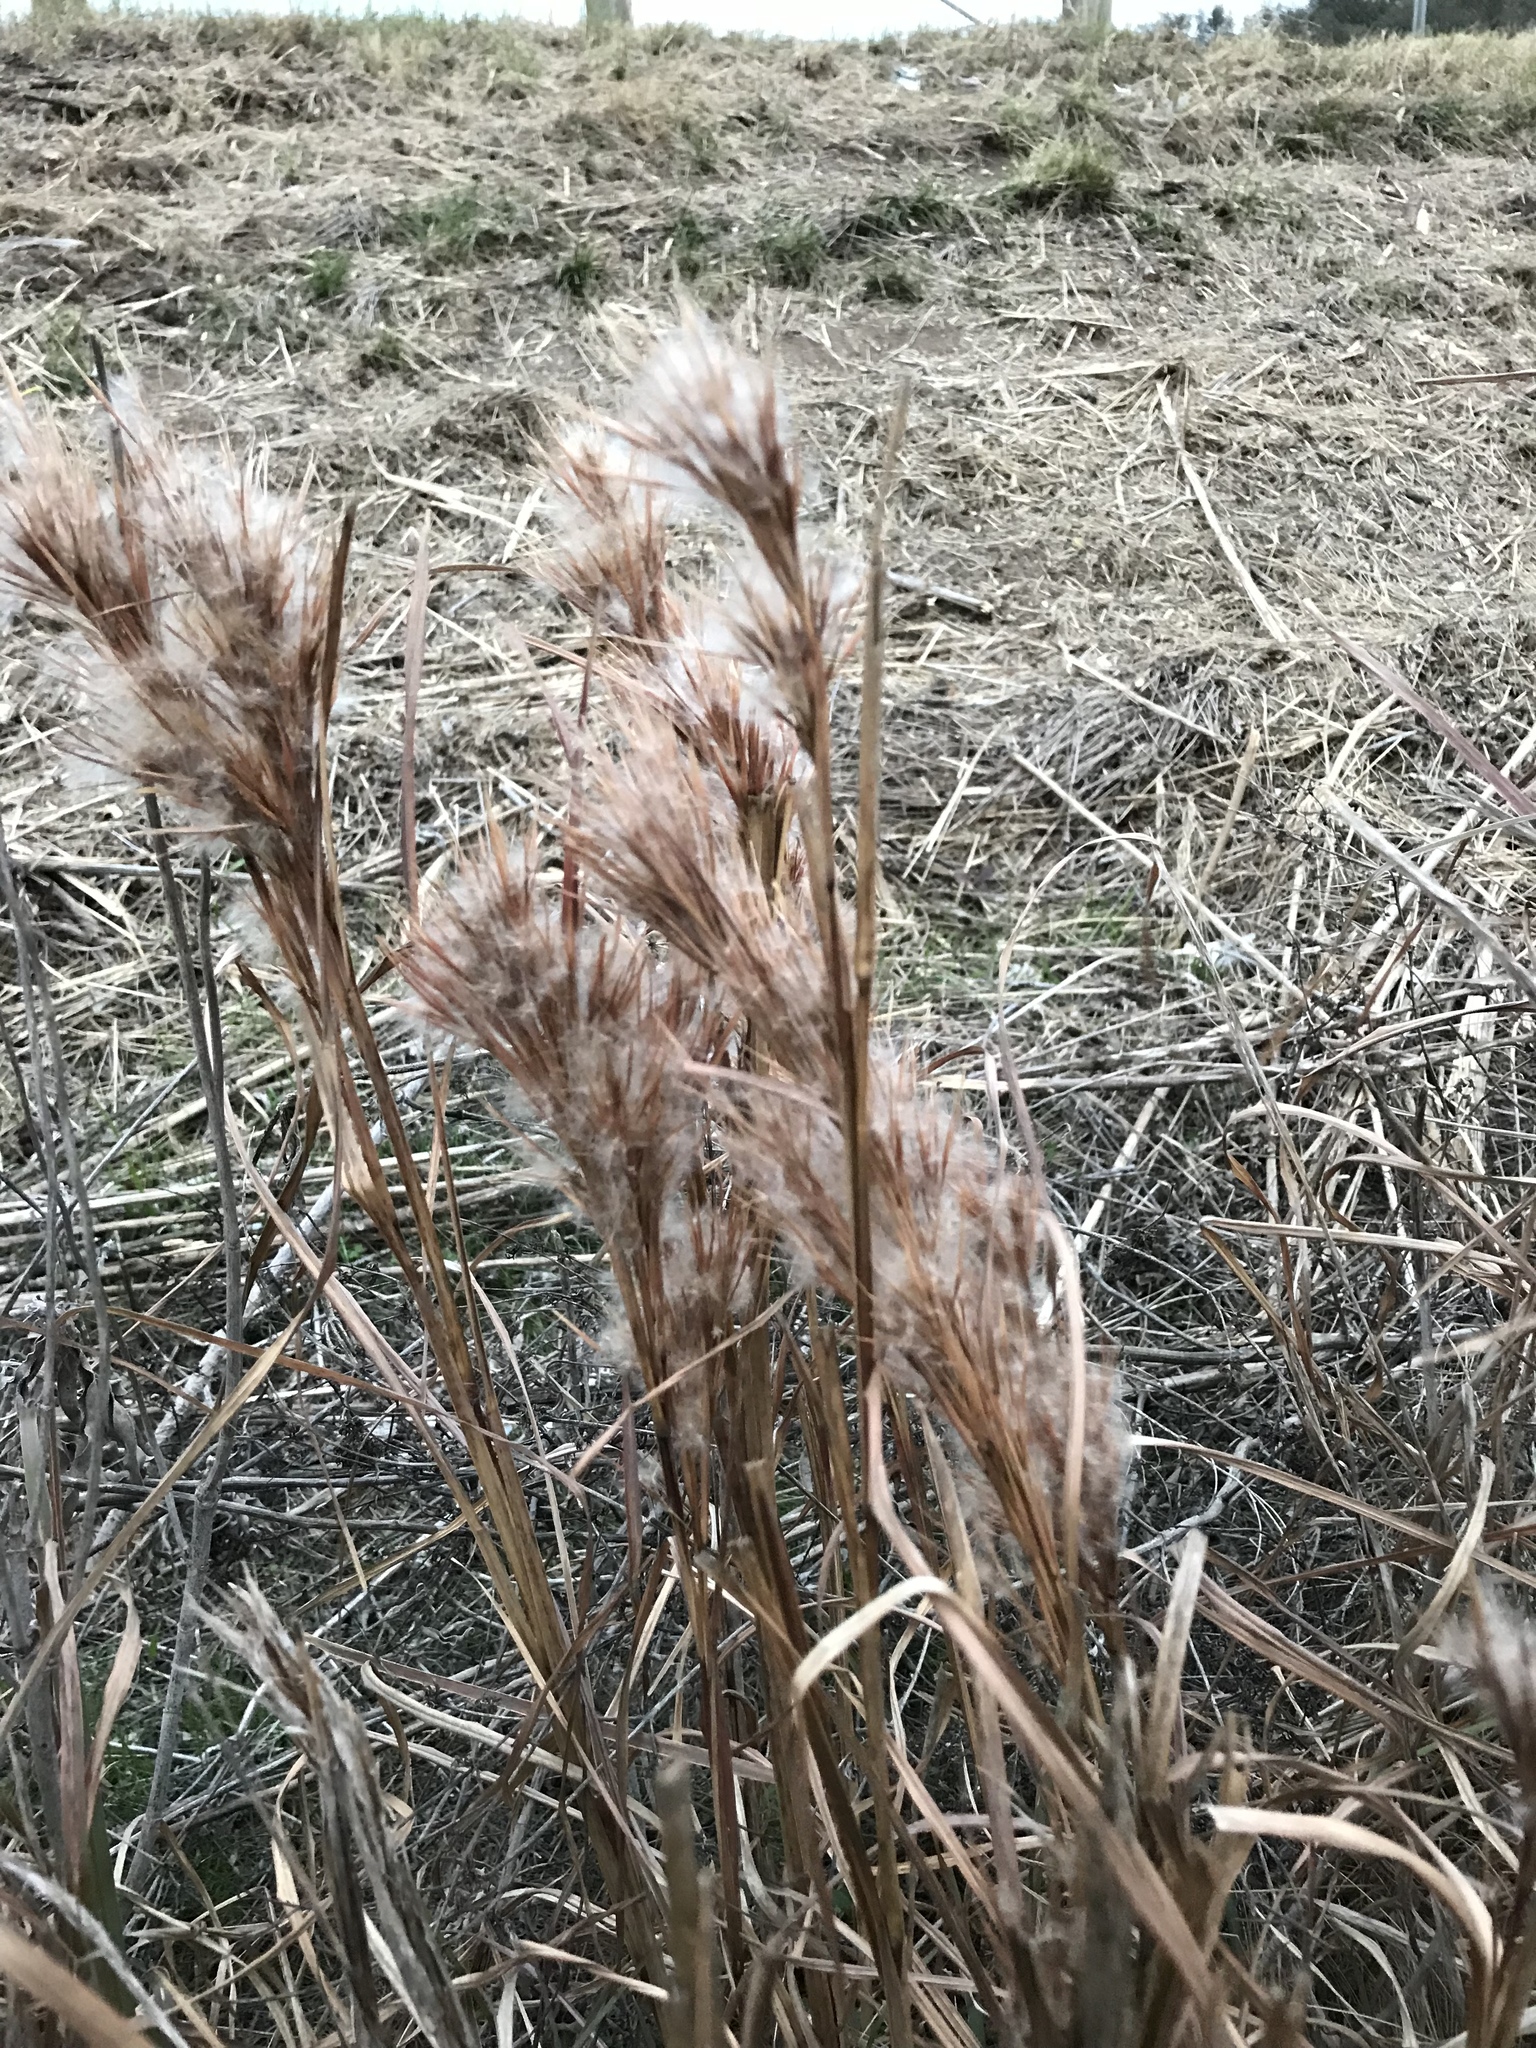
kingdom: Plantae
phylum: Tracheophyta
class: Liliopsida
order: Poales
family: Poaceae
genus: Andropogon
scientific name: Andropogon tenuispatheus
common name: Bushy bluestem
